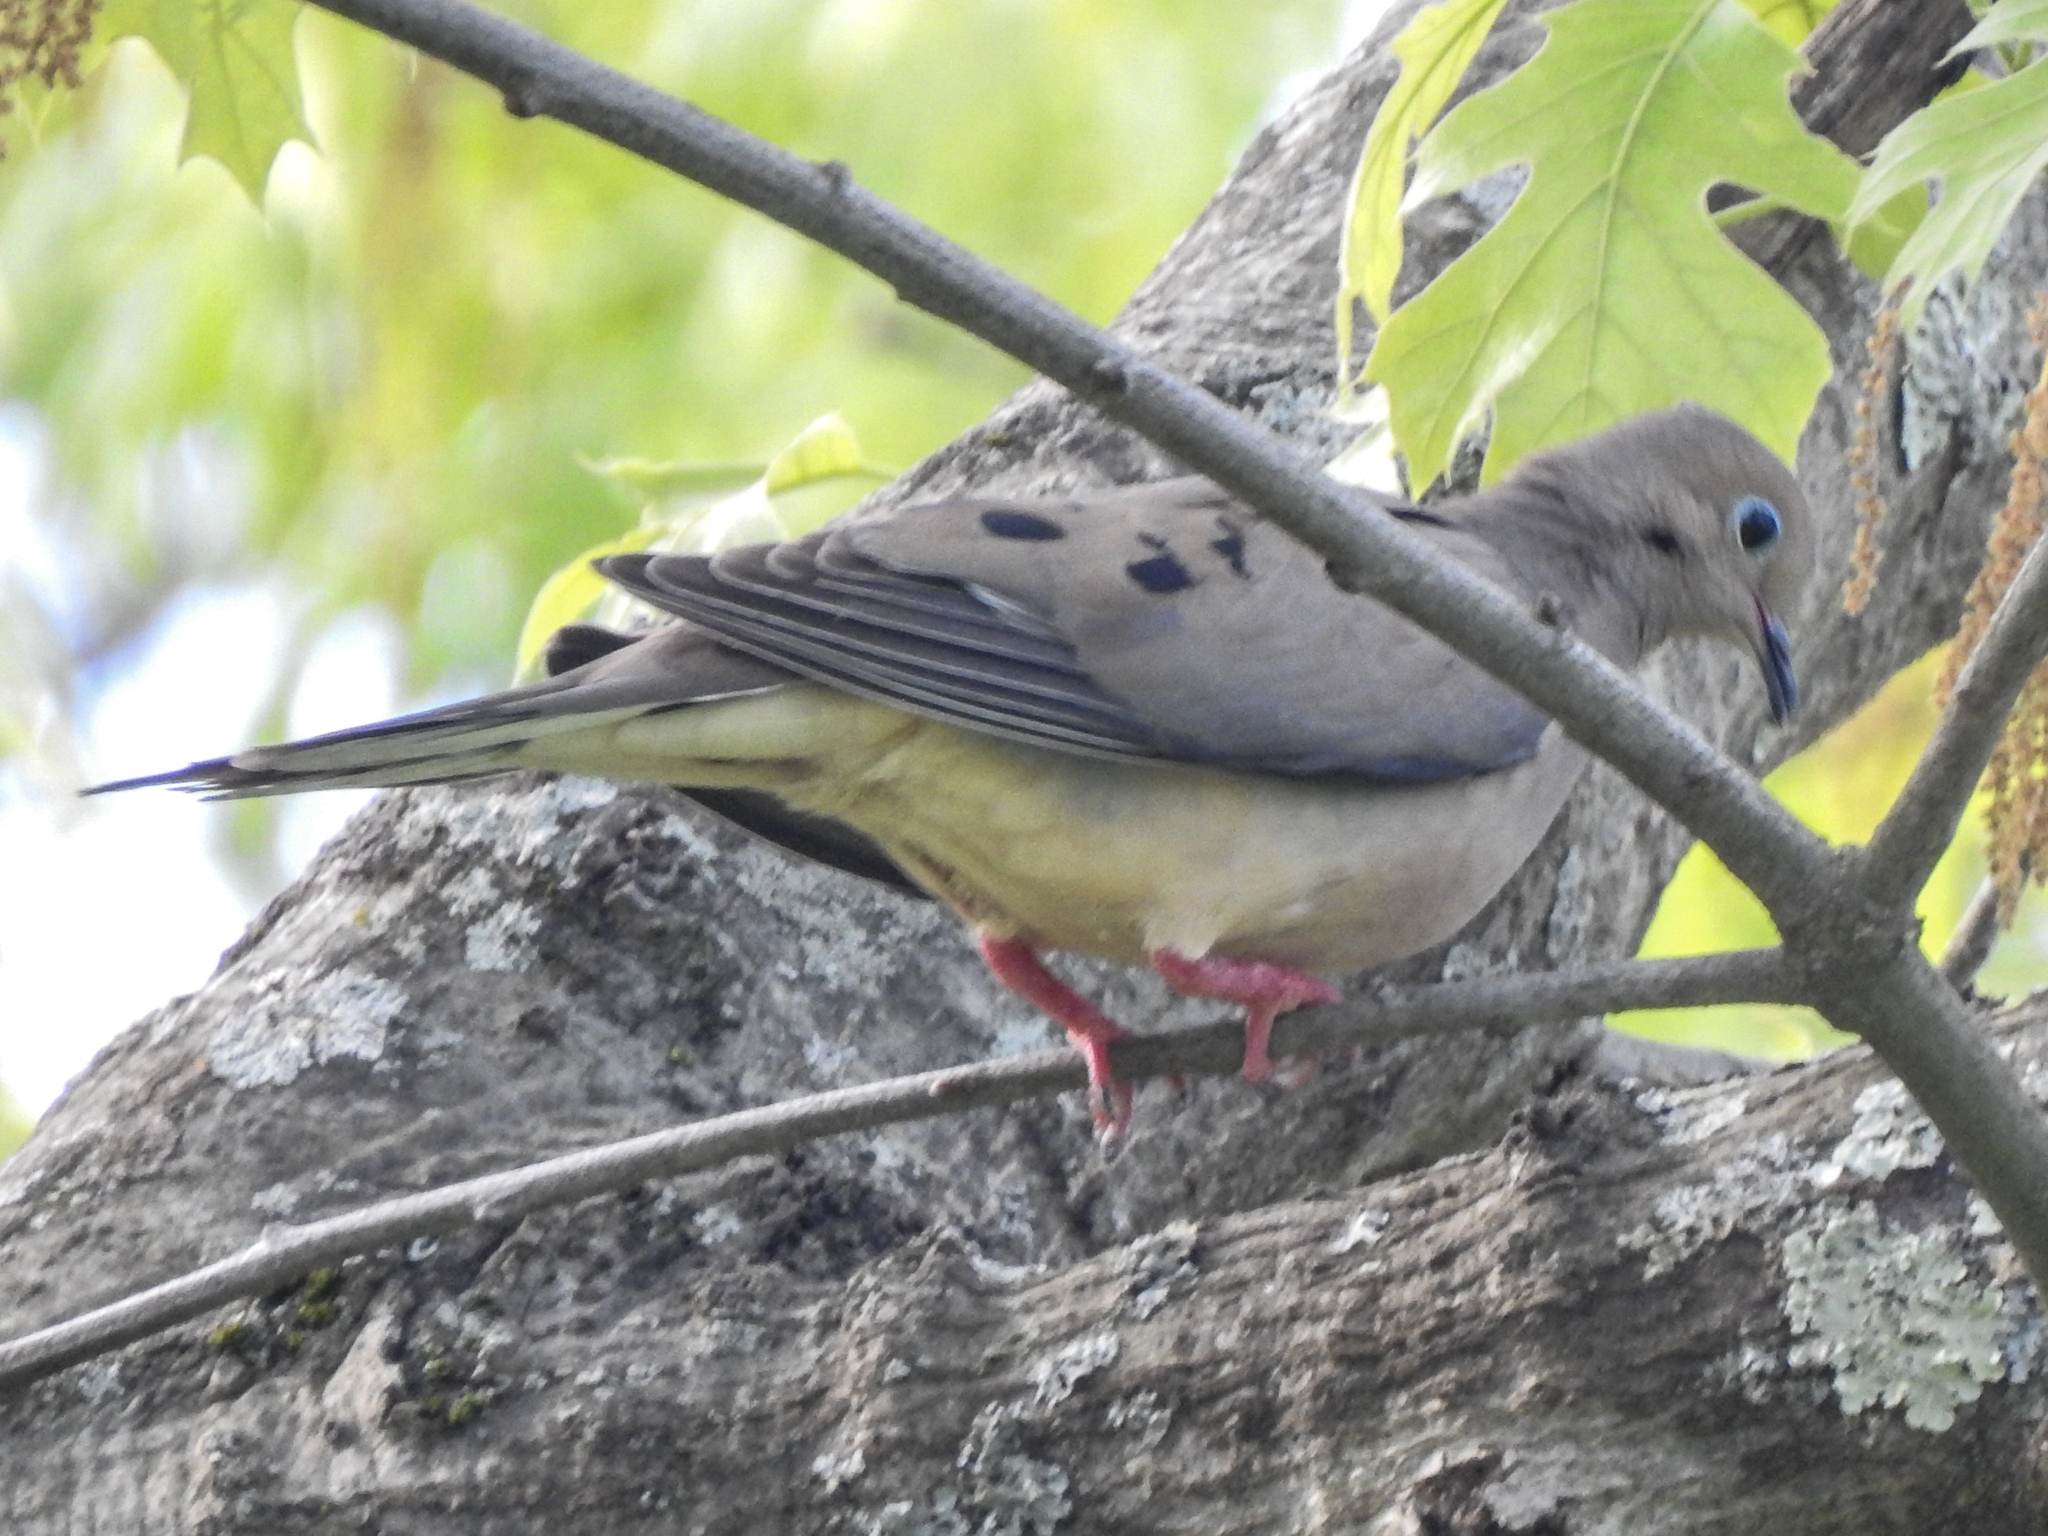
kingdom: Animalia
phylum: Chordata
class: Aves
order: Columbiformes
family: Columbidae
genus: Zenaida
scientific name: Zenaida macroura
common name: Mourning dove
